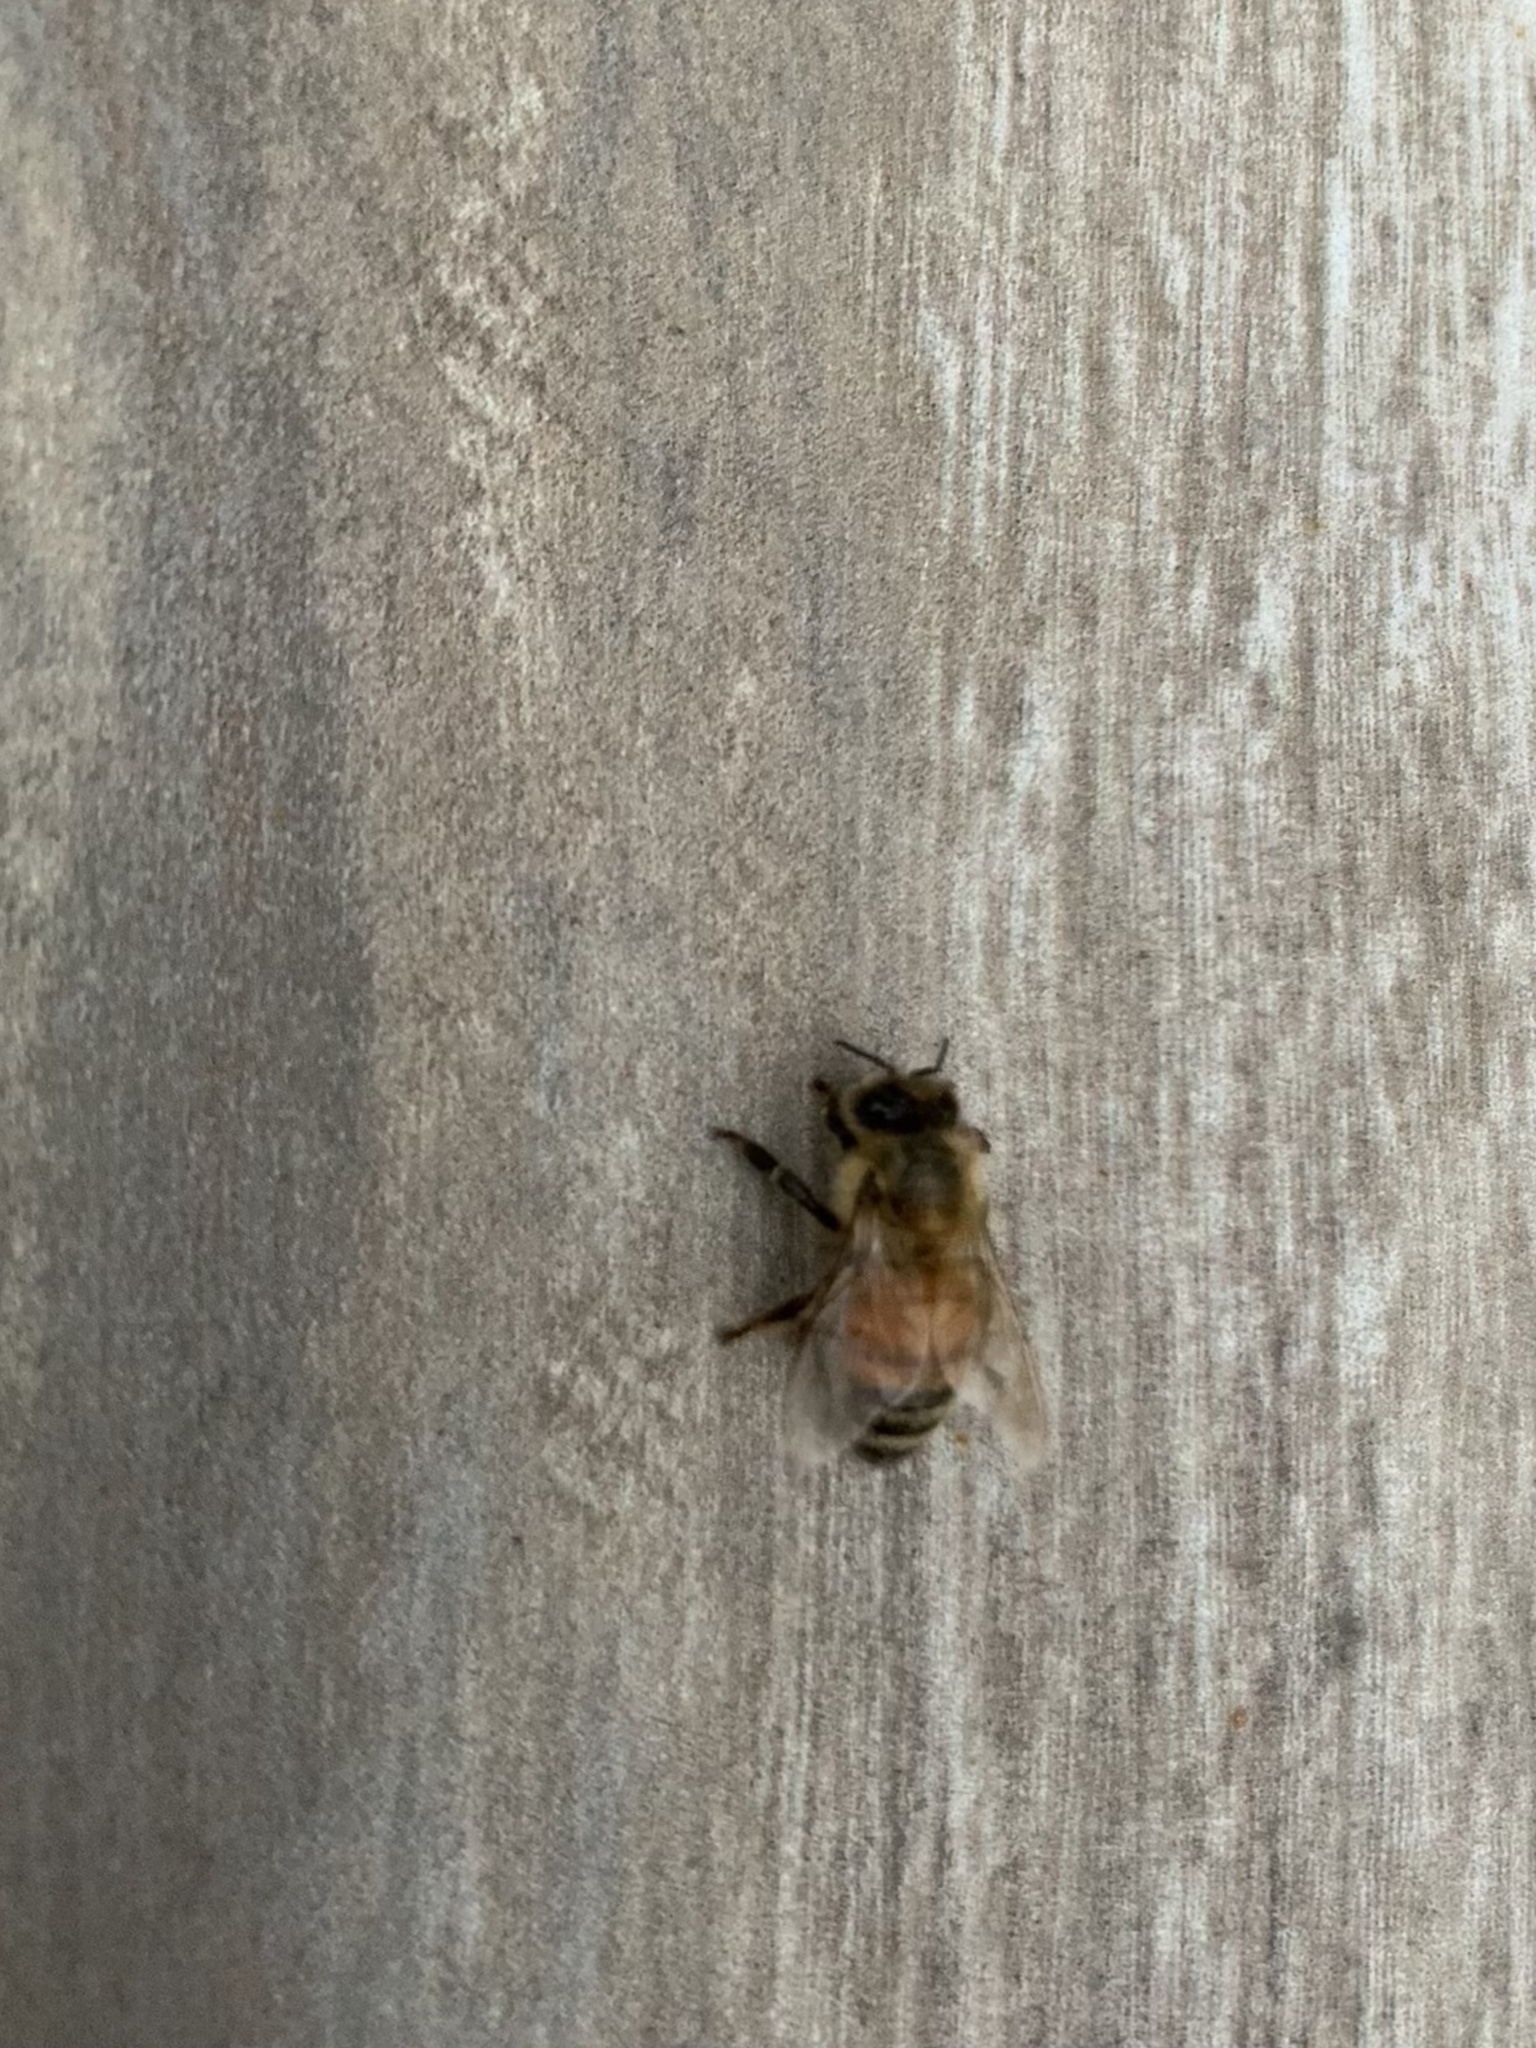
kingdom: Animalia
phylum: Arthropoda
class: Insecta
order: Hymenoptera
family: Apidae
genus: Apis
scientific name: Apis mellifera
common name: Honey bee
